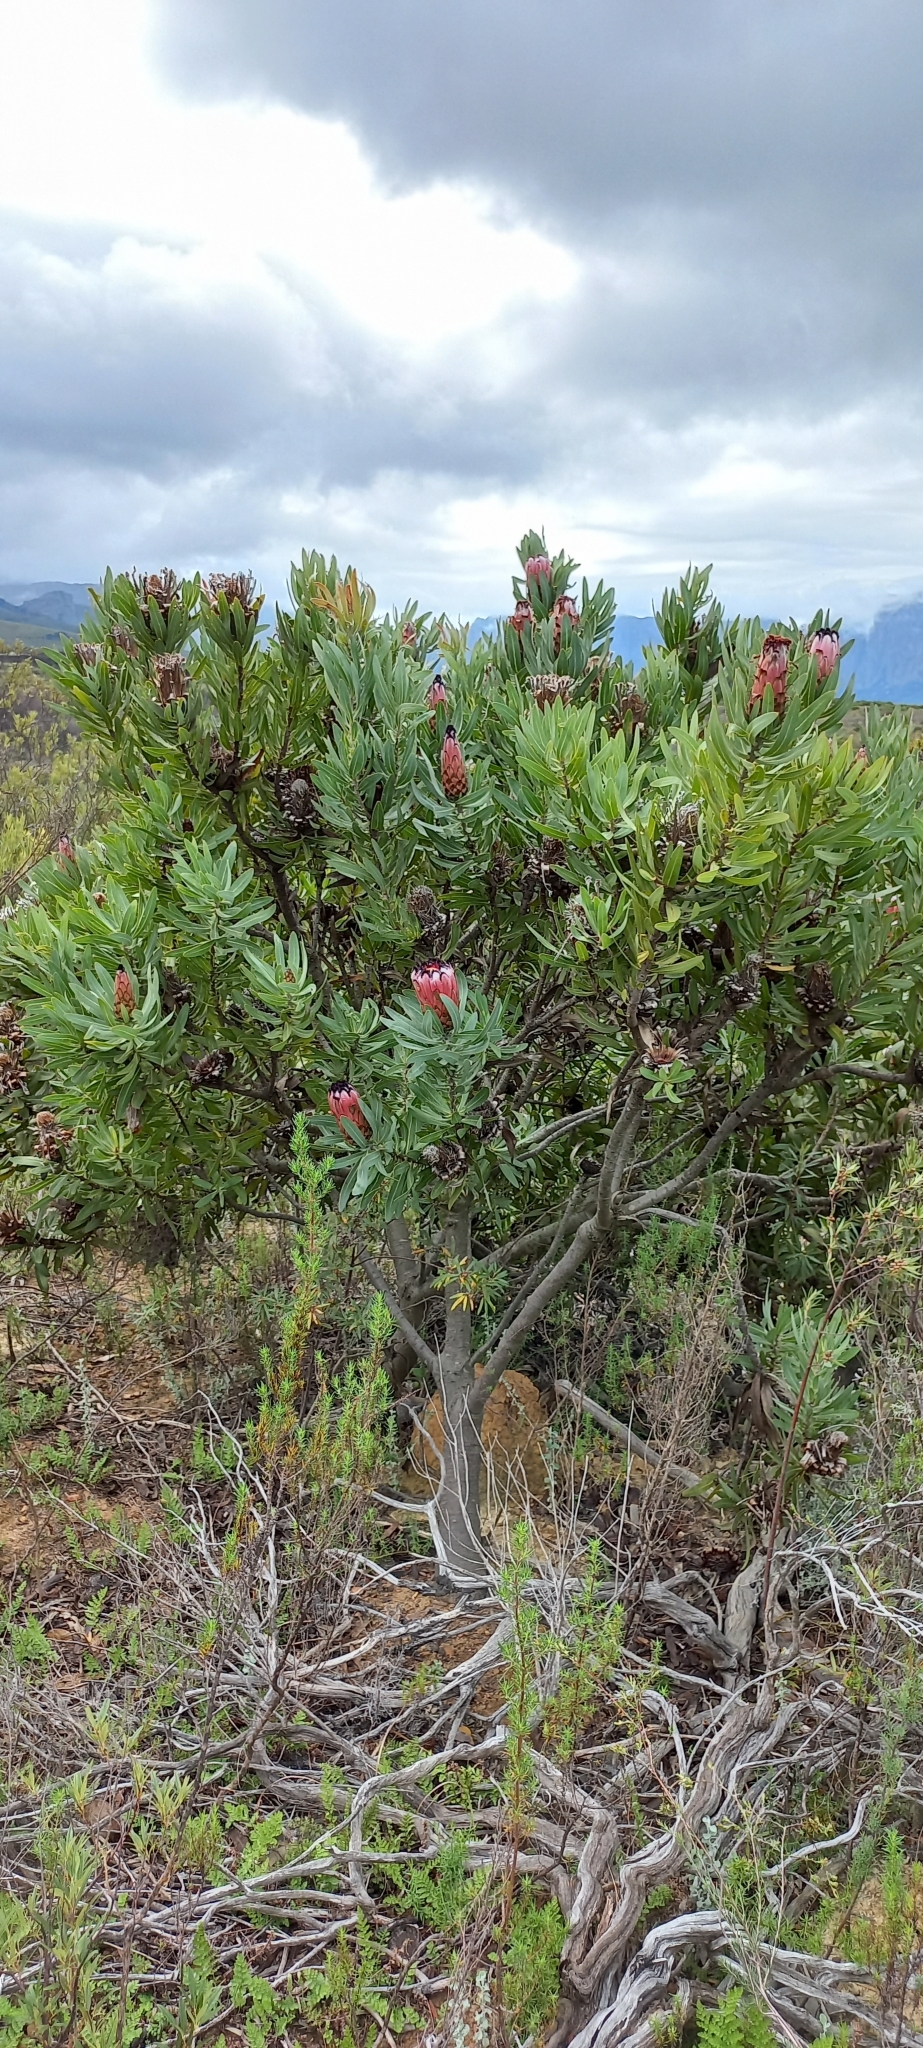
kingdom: Plantae
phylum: Tracheophyta
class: Magnoliopsida
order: Proteales
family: Proteaceae
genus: Protea
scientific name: Protea laurifolia
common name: Grey-leaf sugarbsh
